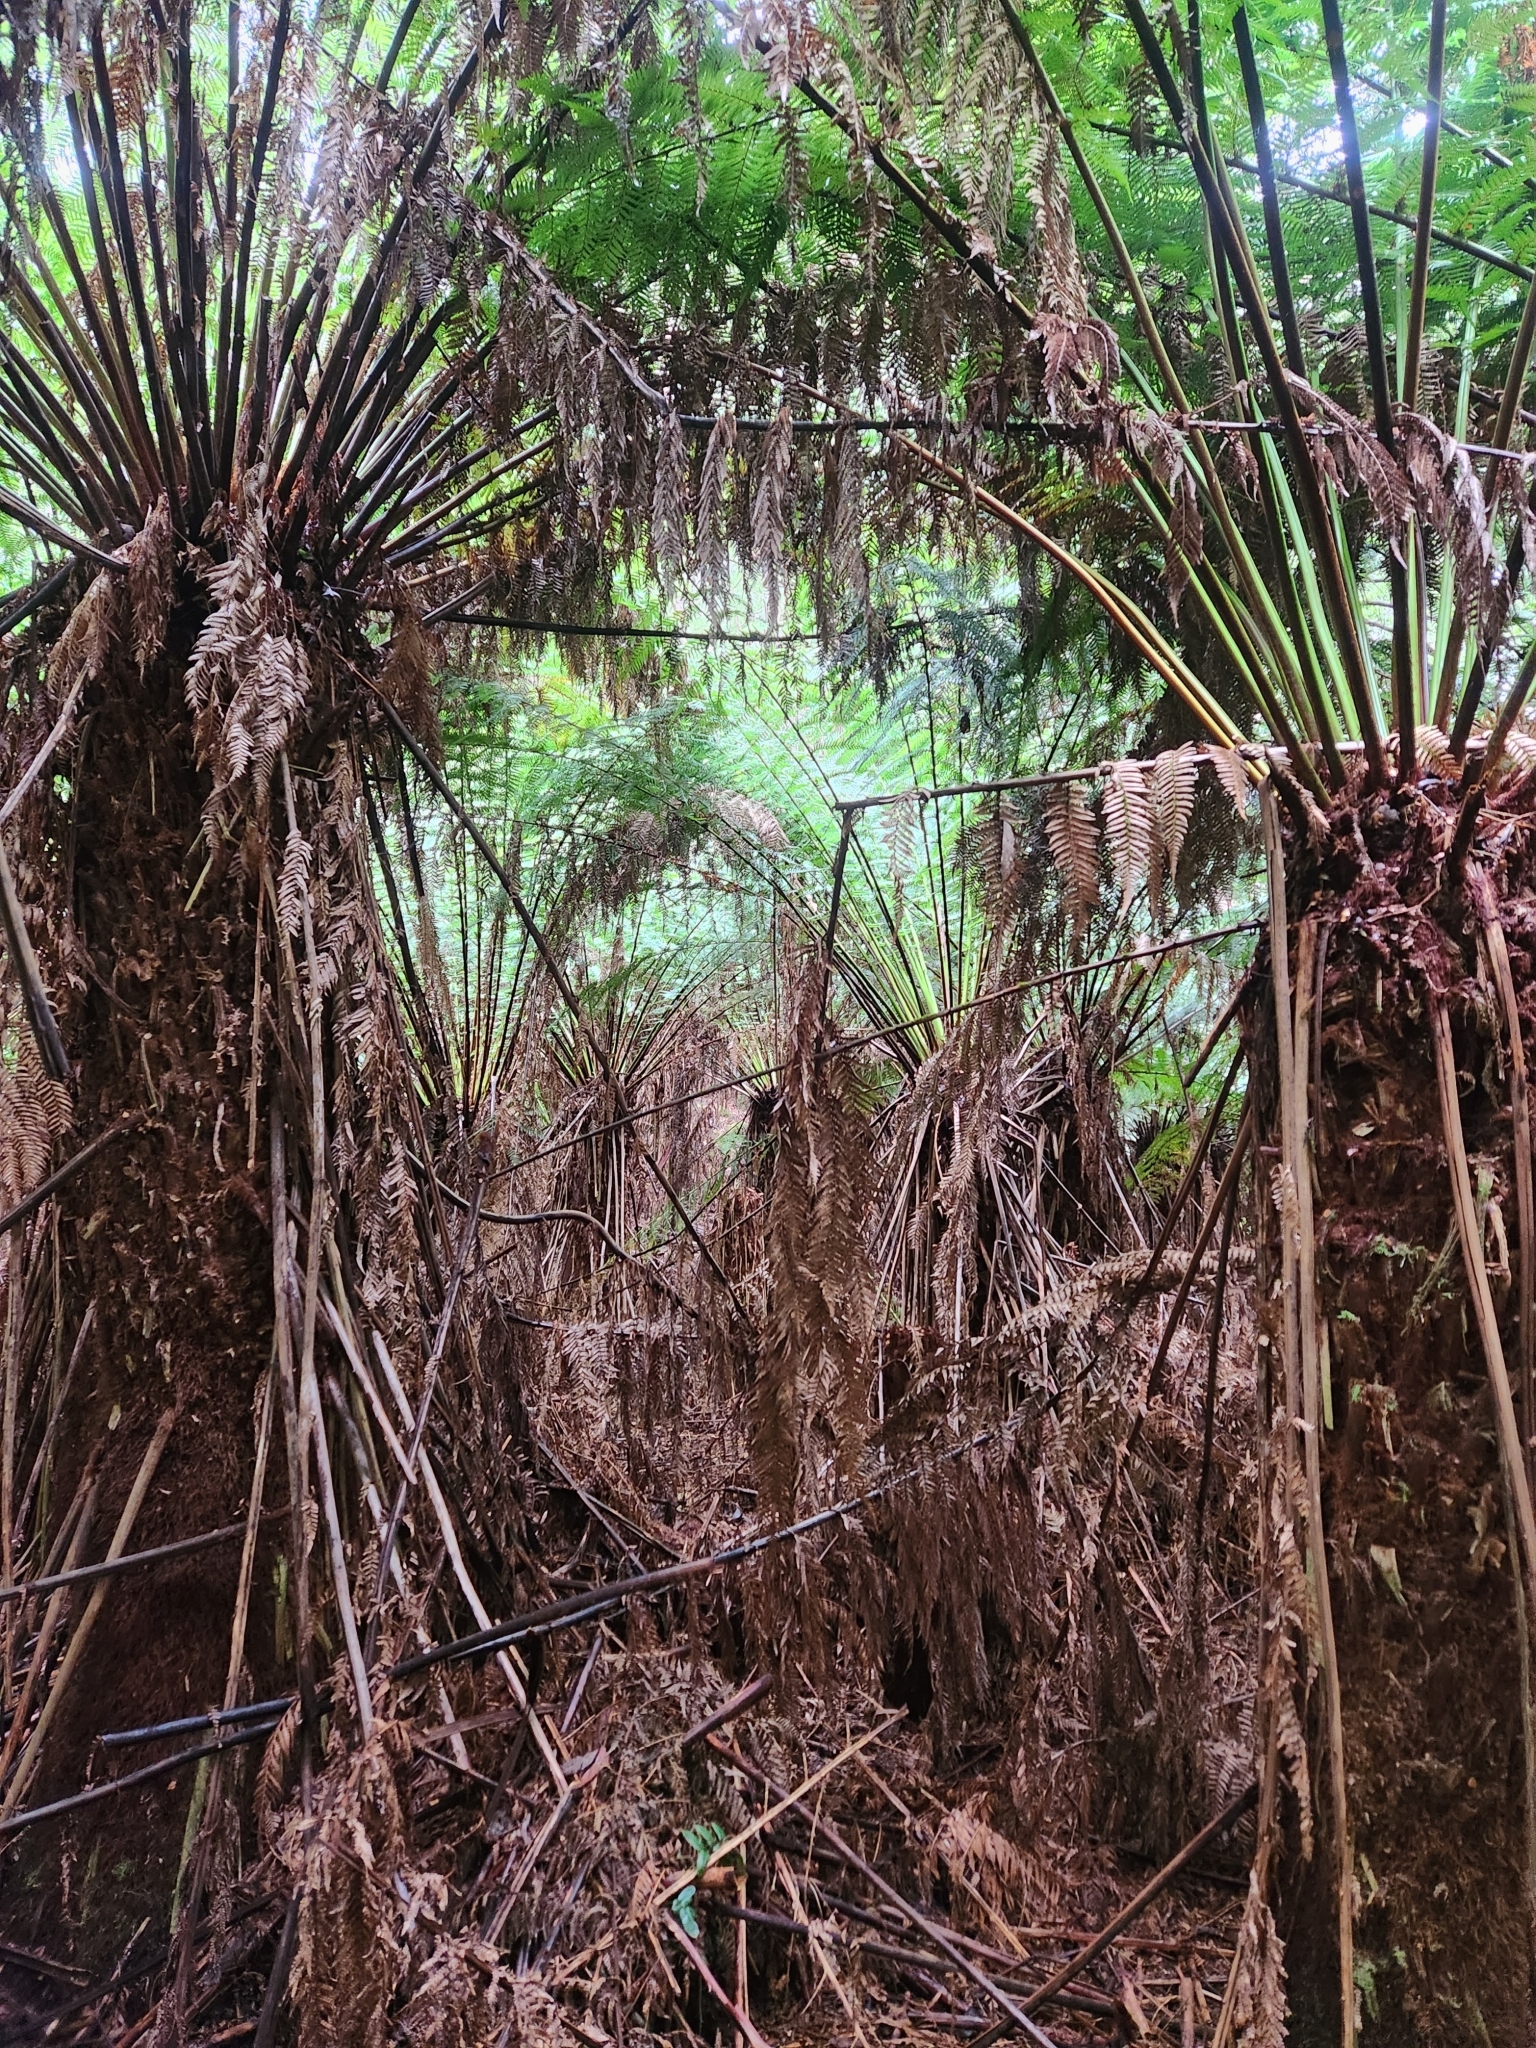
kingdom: Plantae
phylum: Tracheophyta
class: Polypodiopsida
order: Cyatheales
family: Dicksoniaceae
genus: Dicksonia
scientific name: Dicksonia antarctica
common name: Australian treefern
